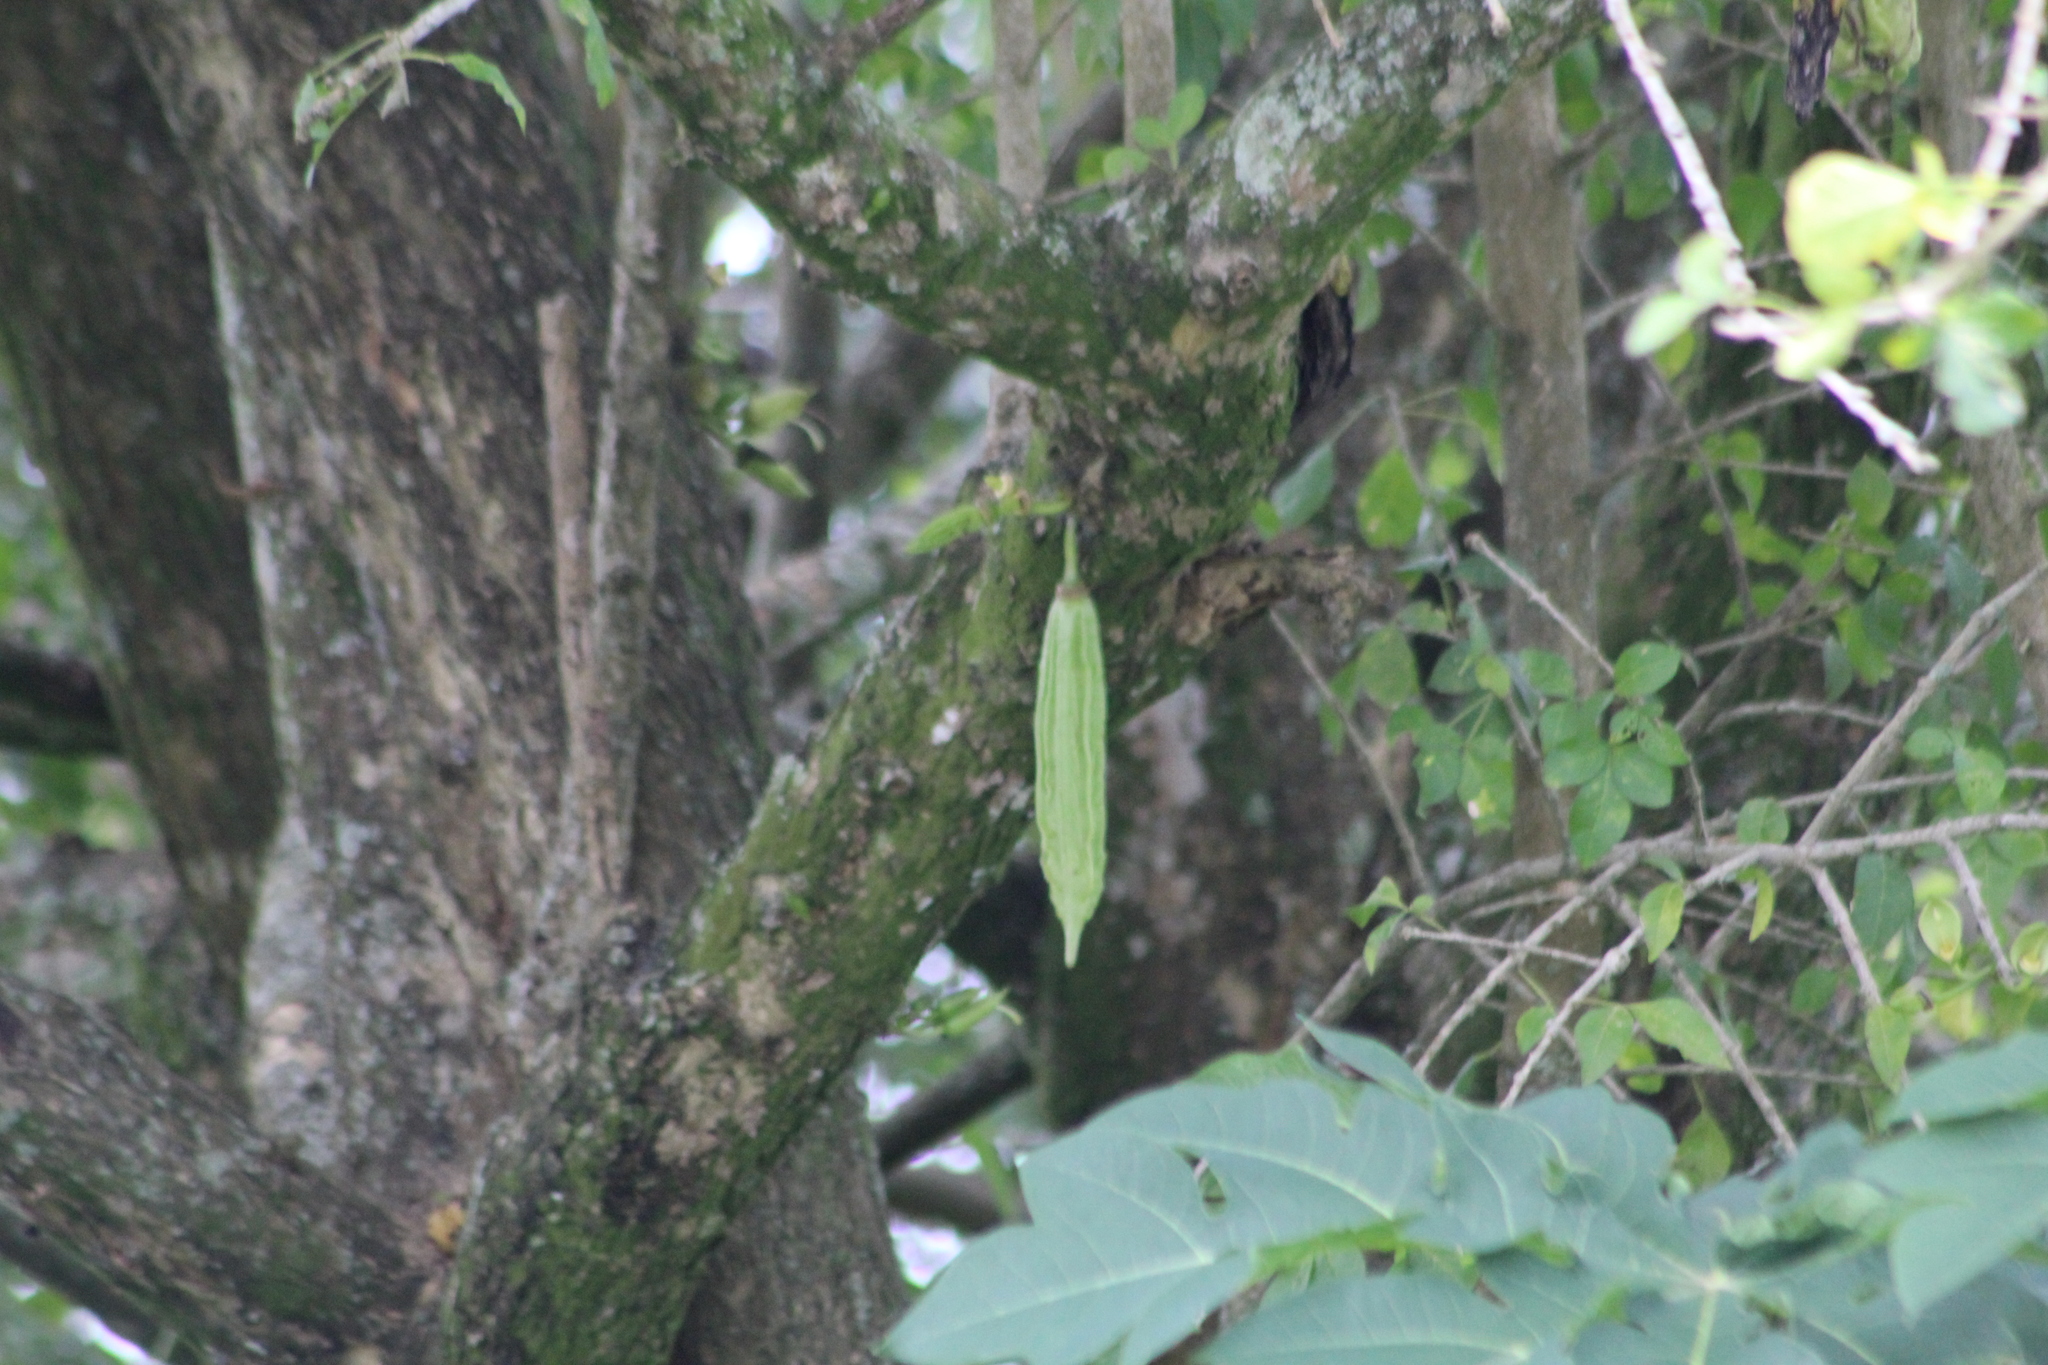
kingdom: Plantae
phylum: Tracheophyta
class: Magnoliopsida
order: Lamiales
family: Bignoniaceae
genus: Parmentiera
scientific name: Parmentiera aculeata
